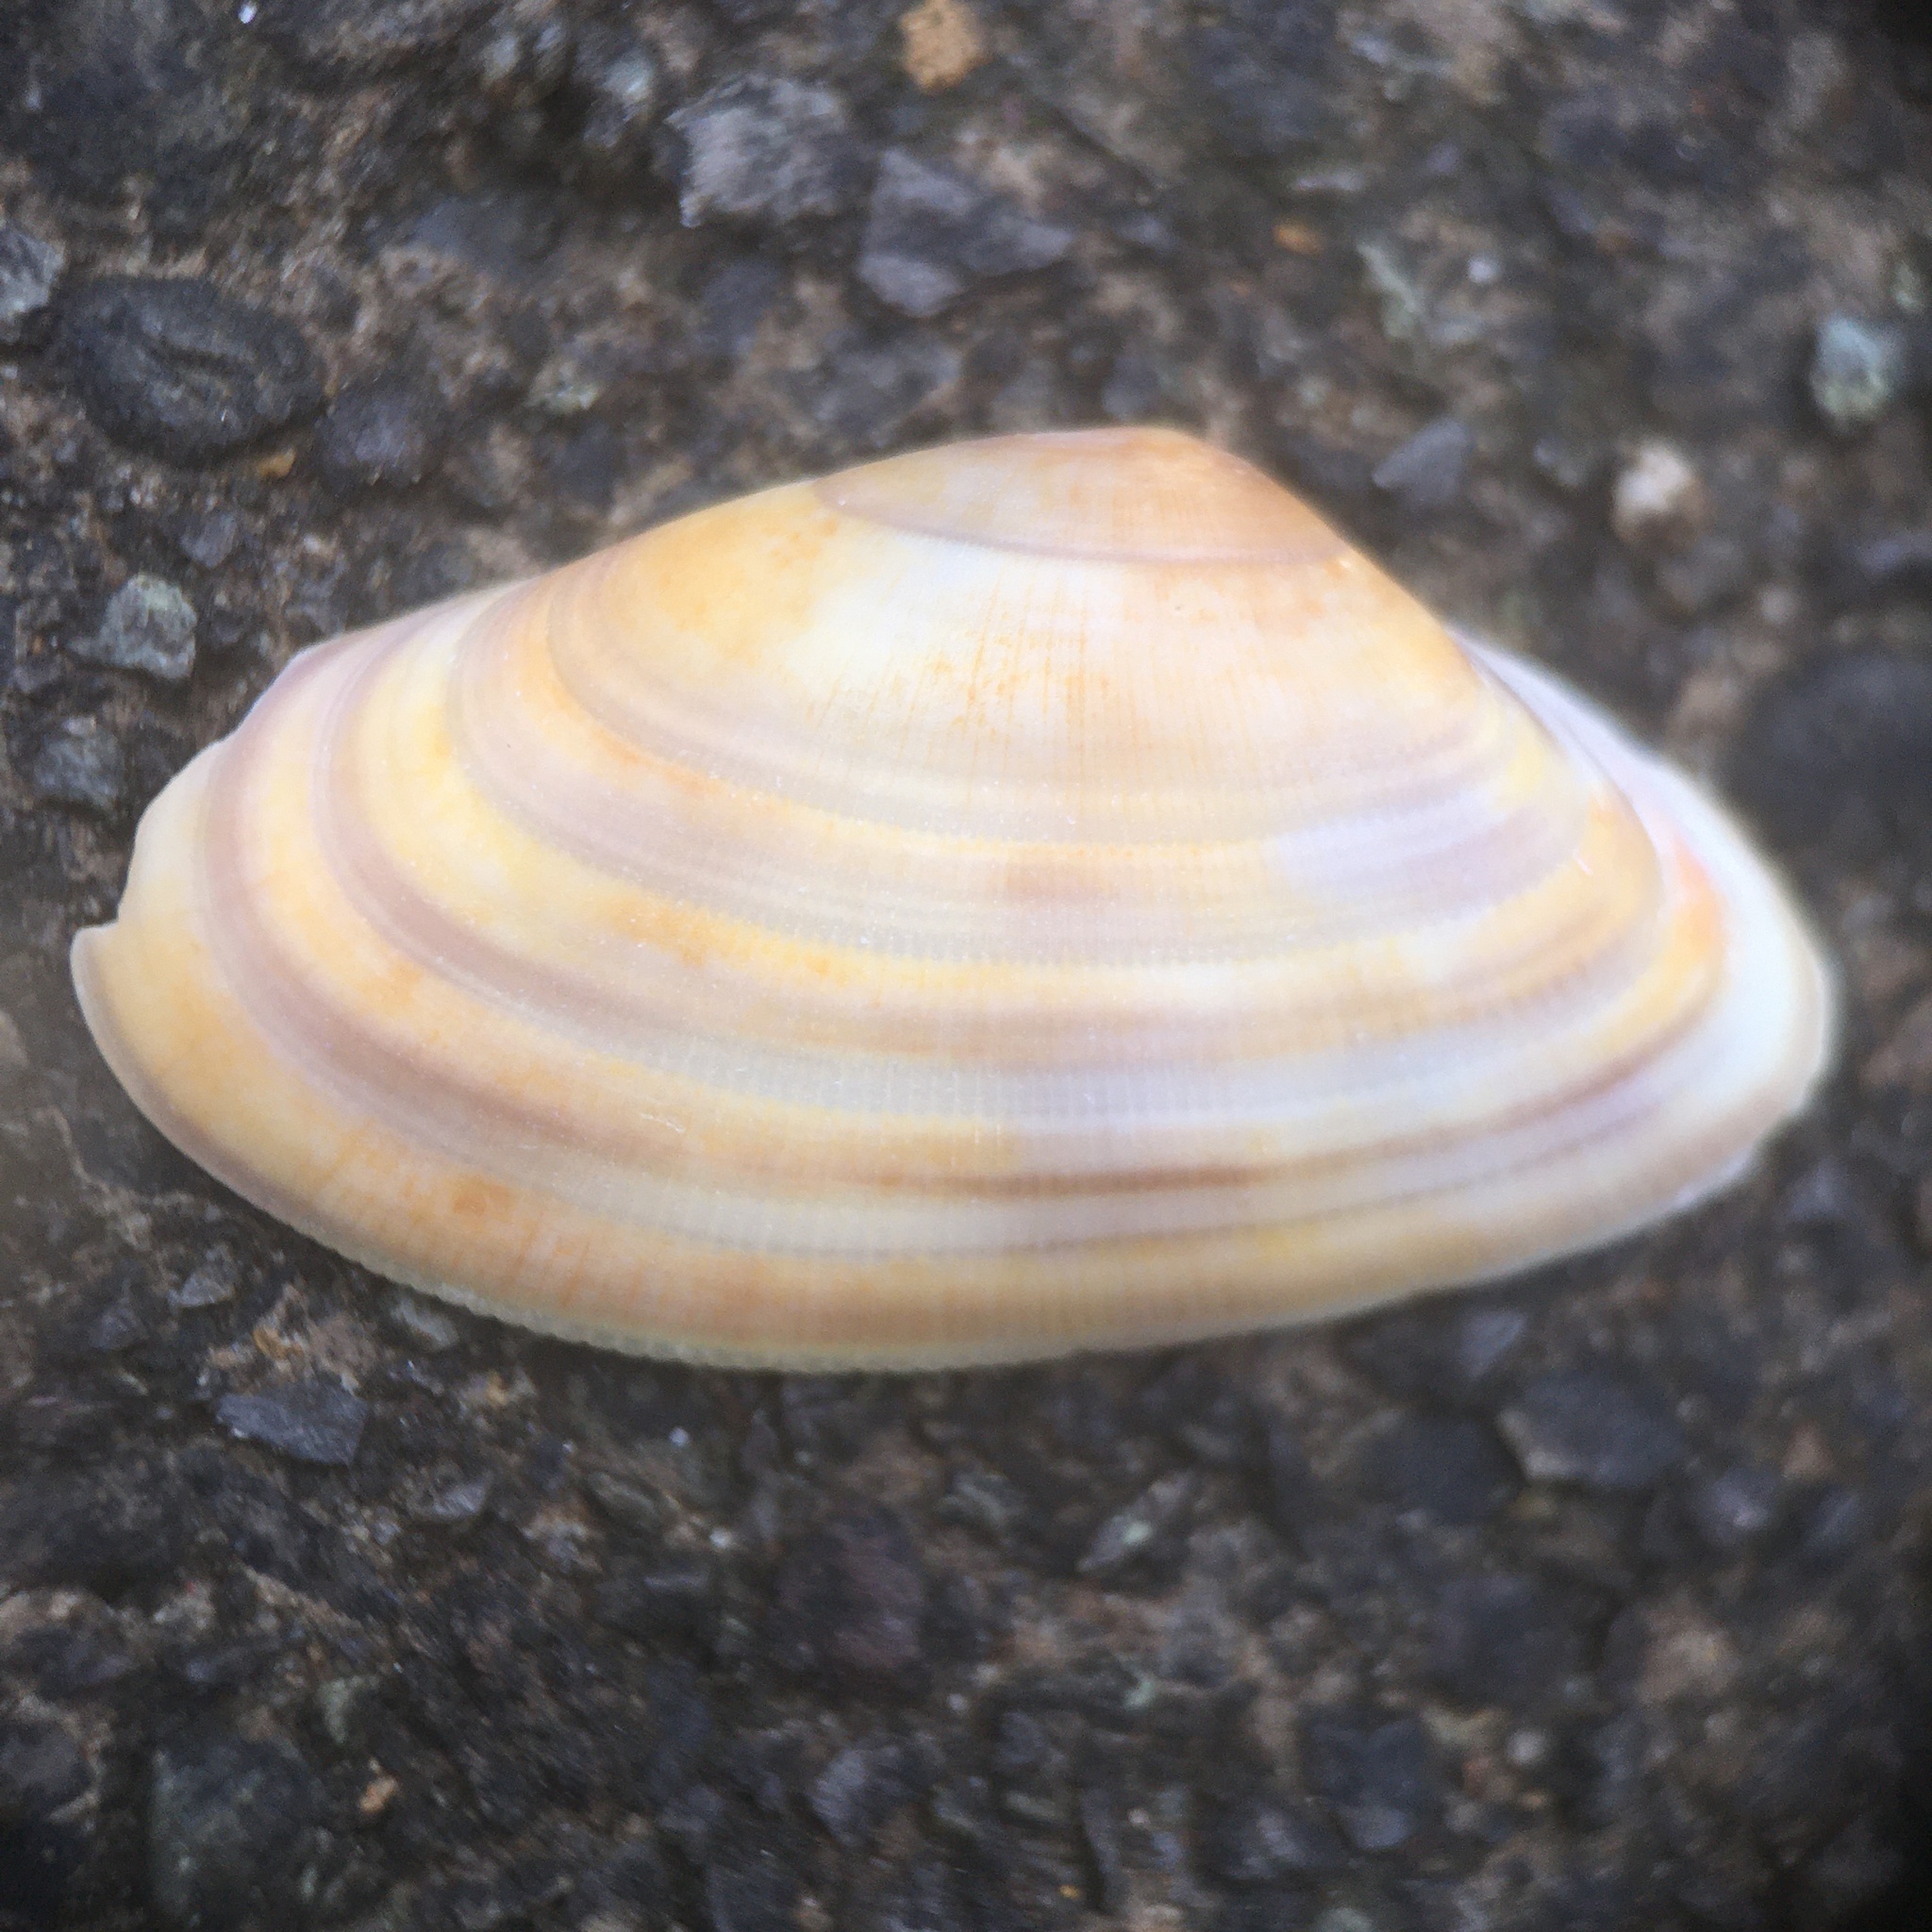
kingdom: Animalia
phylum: Mollusca
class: Bivalvia
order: Cardiida
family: Donacidae
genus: Donax
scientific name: Donax vittatus
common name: Banded wedge-shell
